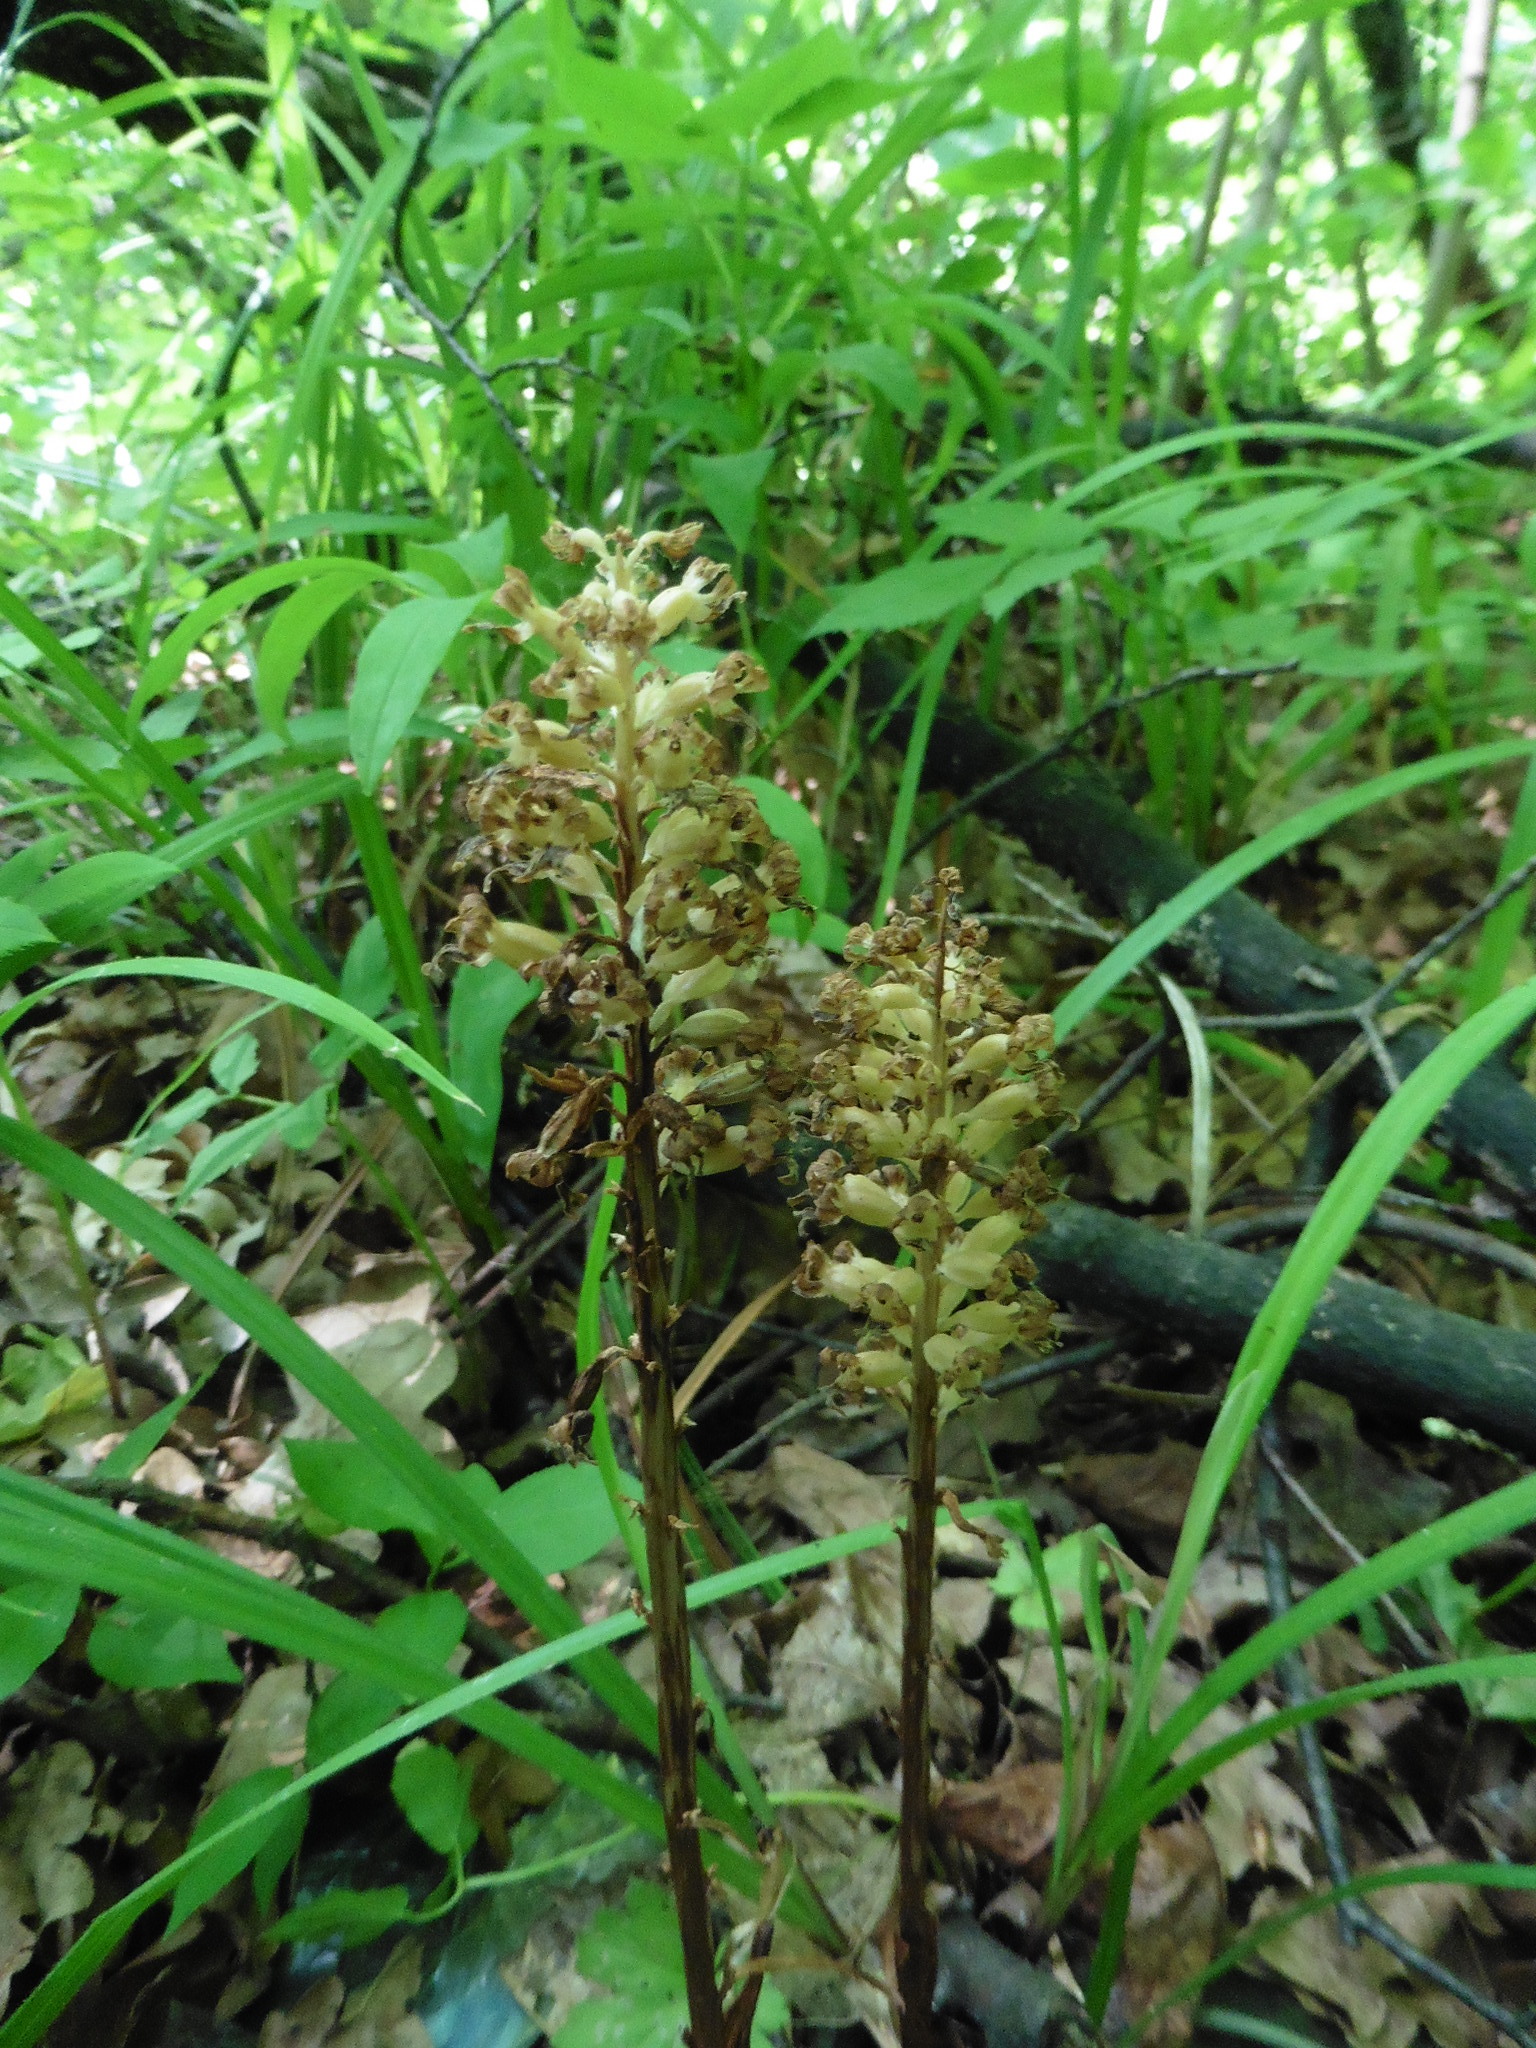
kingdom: Plantae
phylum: Tracheophyta
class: Liliopsida
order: Asparagales
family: Orchidaceae
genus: Neottia
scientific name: Neottia nidus-avis
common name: Bird's-nest orchid
